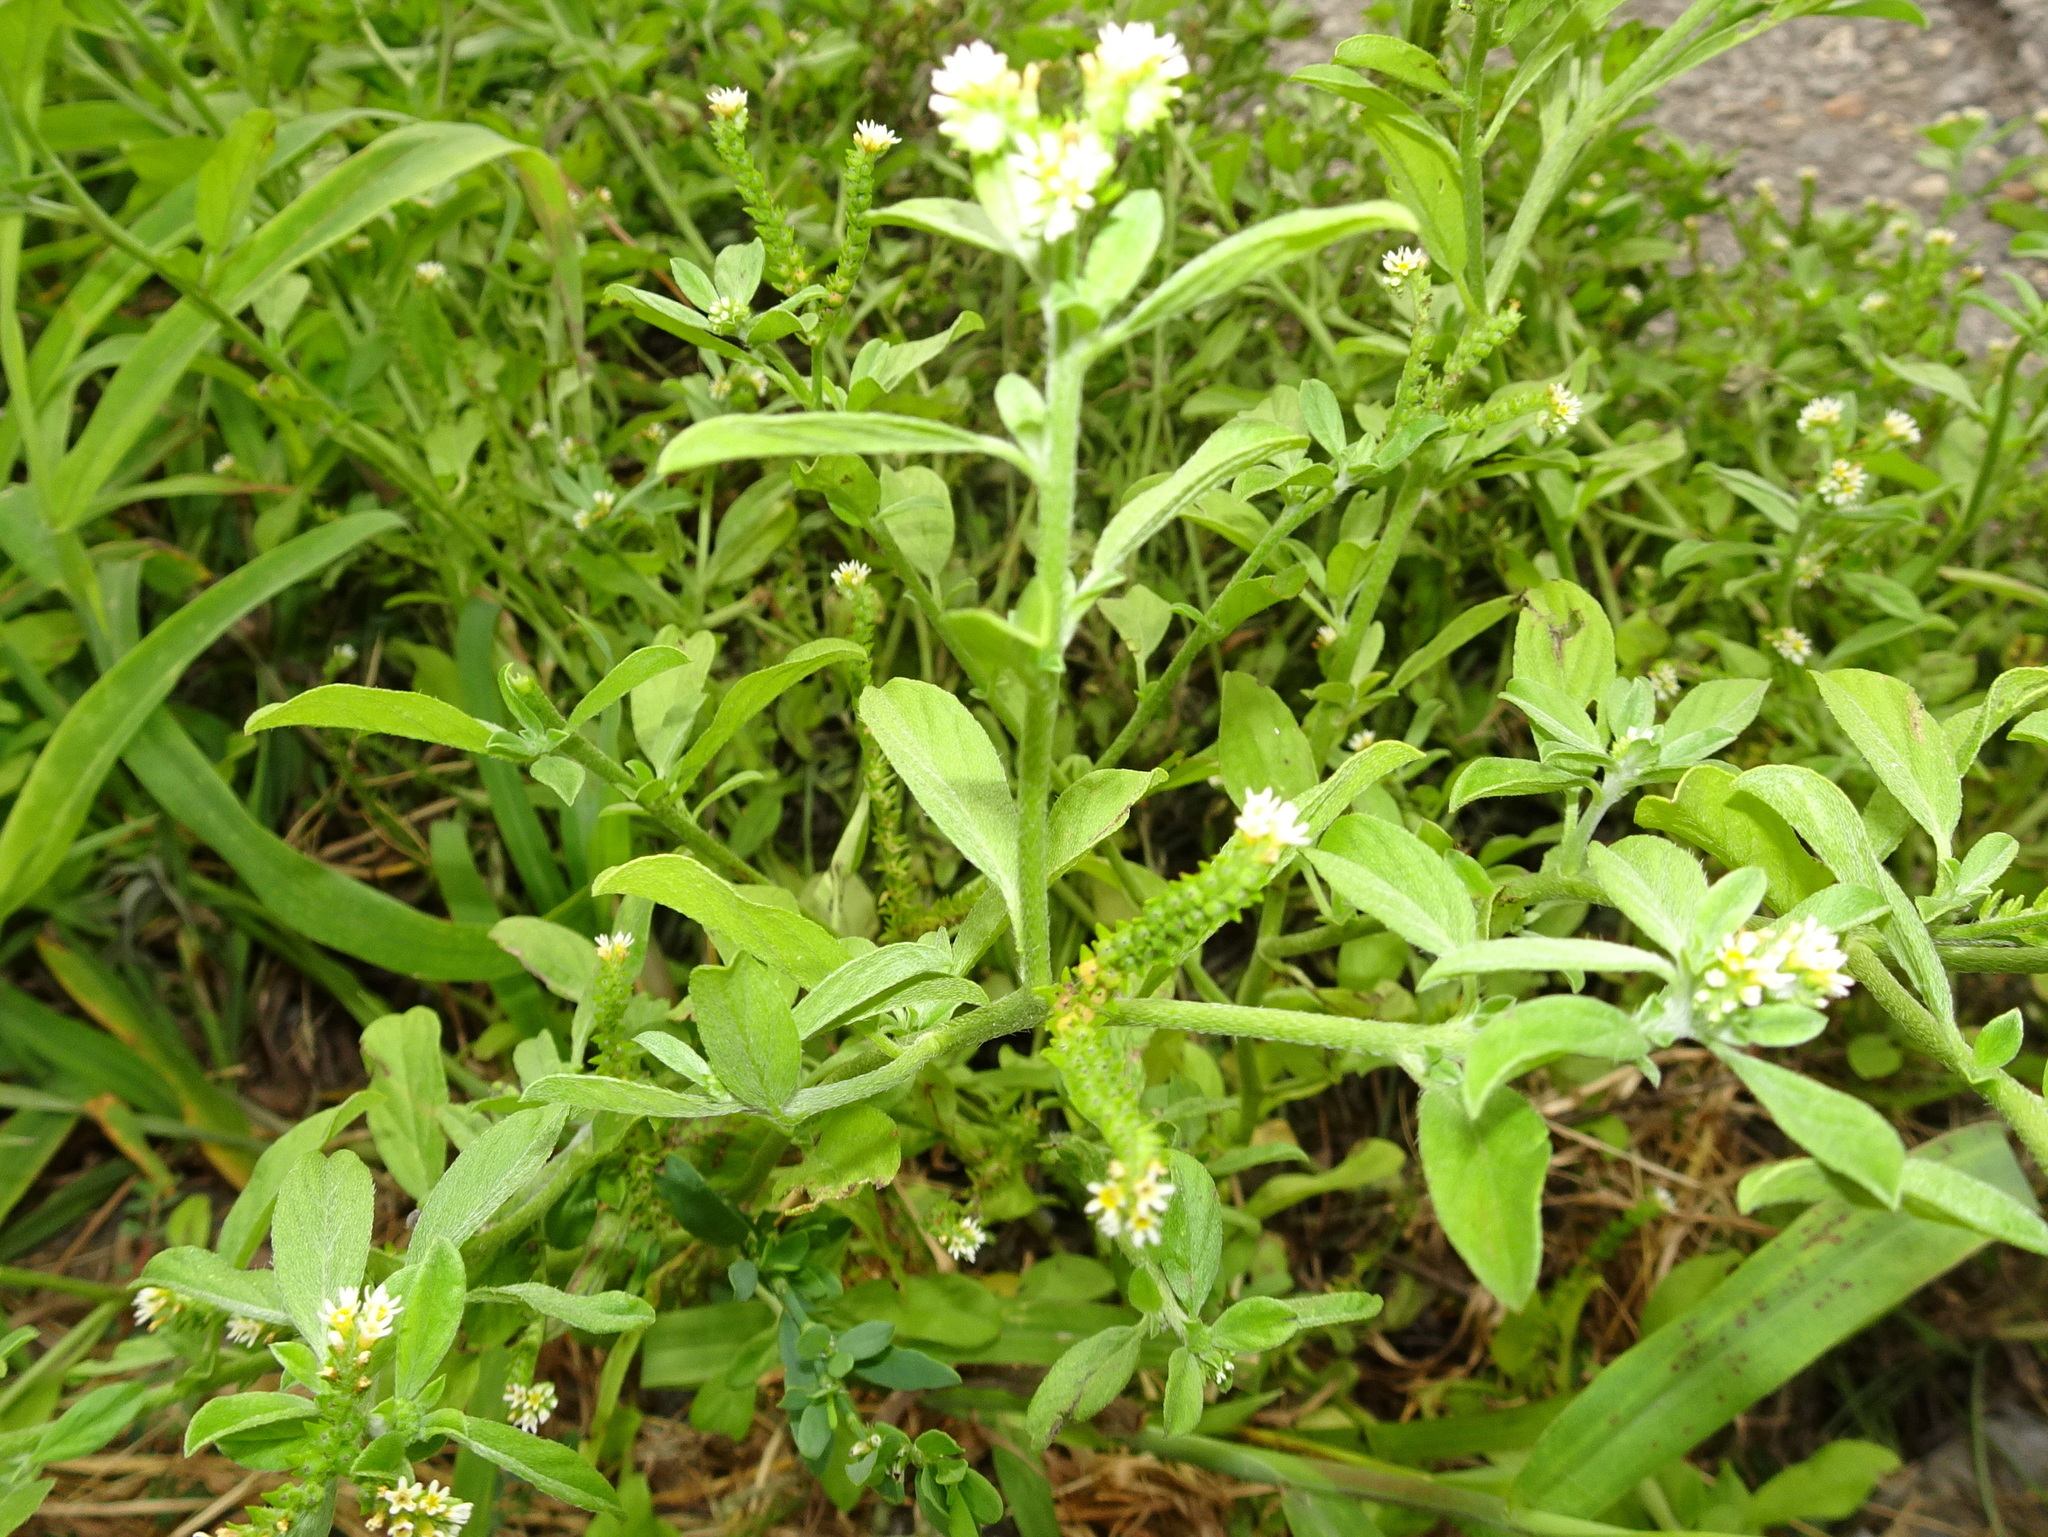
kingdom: Plantae
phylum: Tracheophyta
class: Magnoliopsida
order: Boraginales
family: Heliotropiaceae
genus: Euploca
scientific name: Euploca procumbens
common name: Fourspike heliotrope
